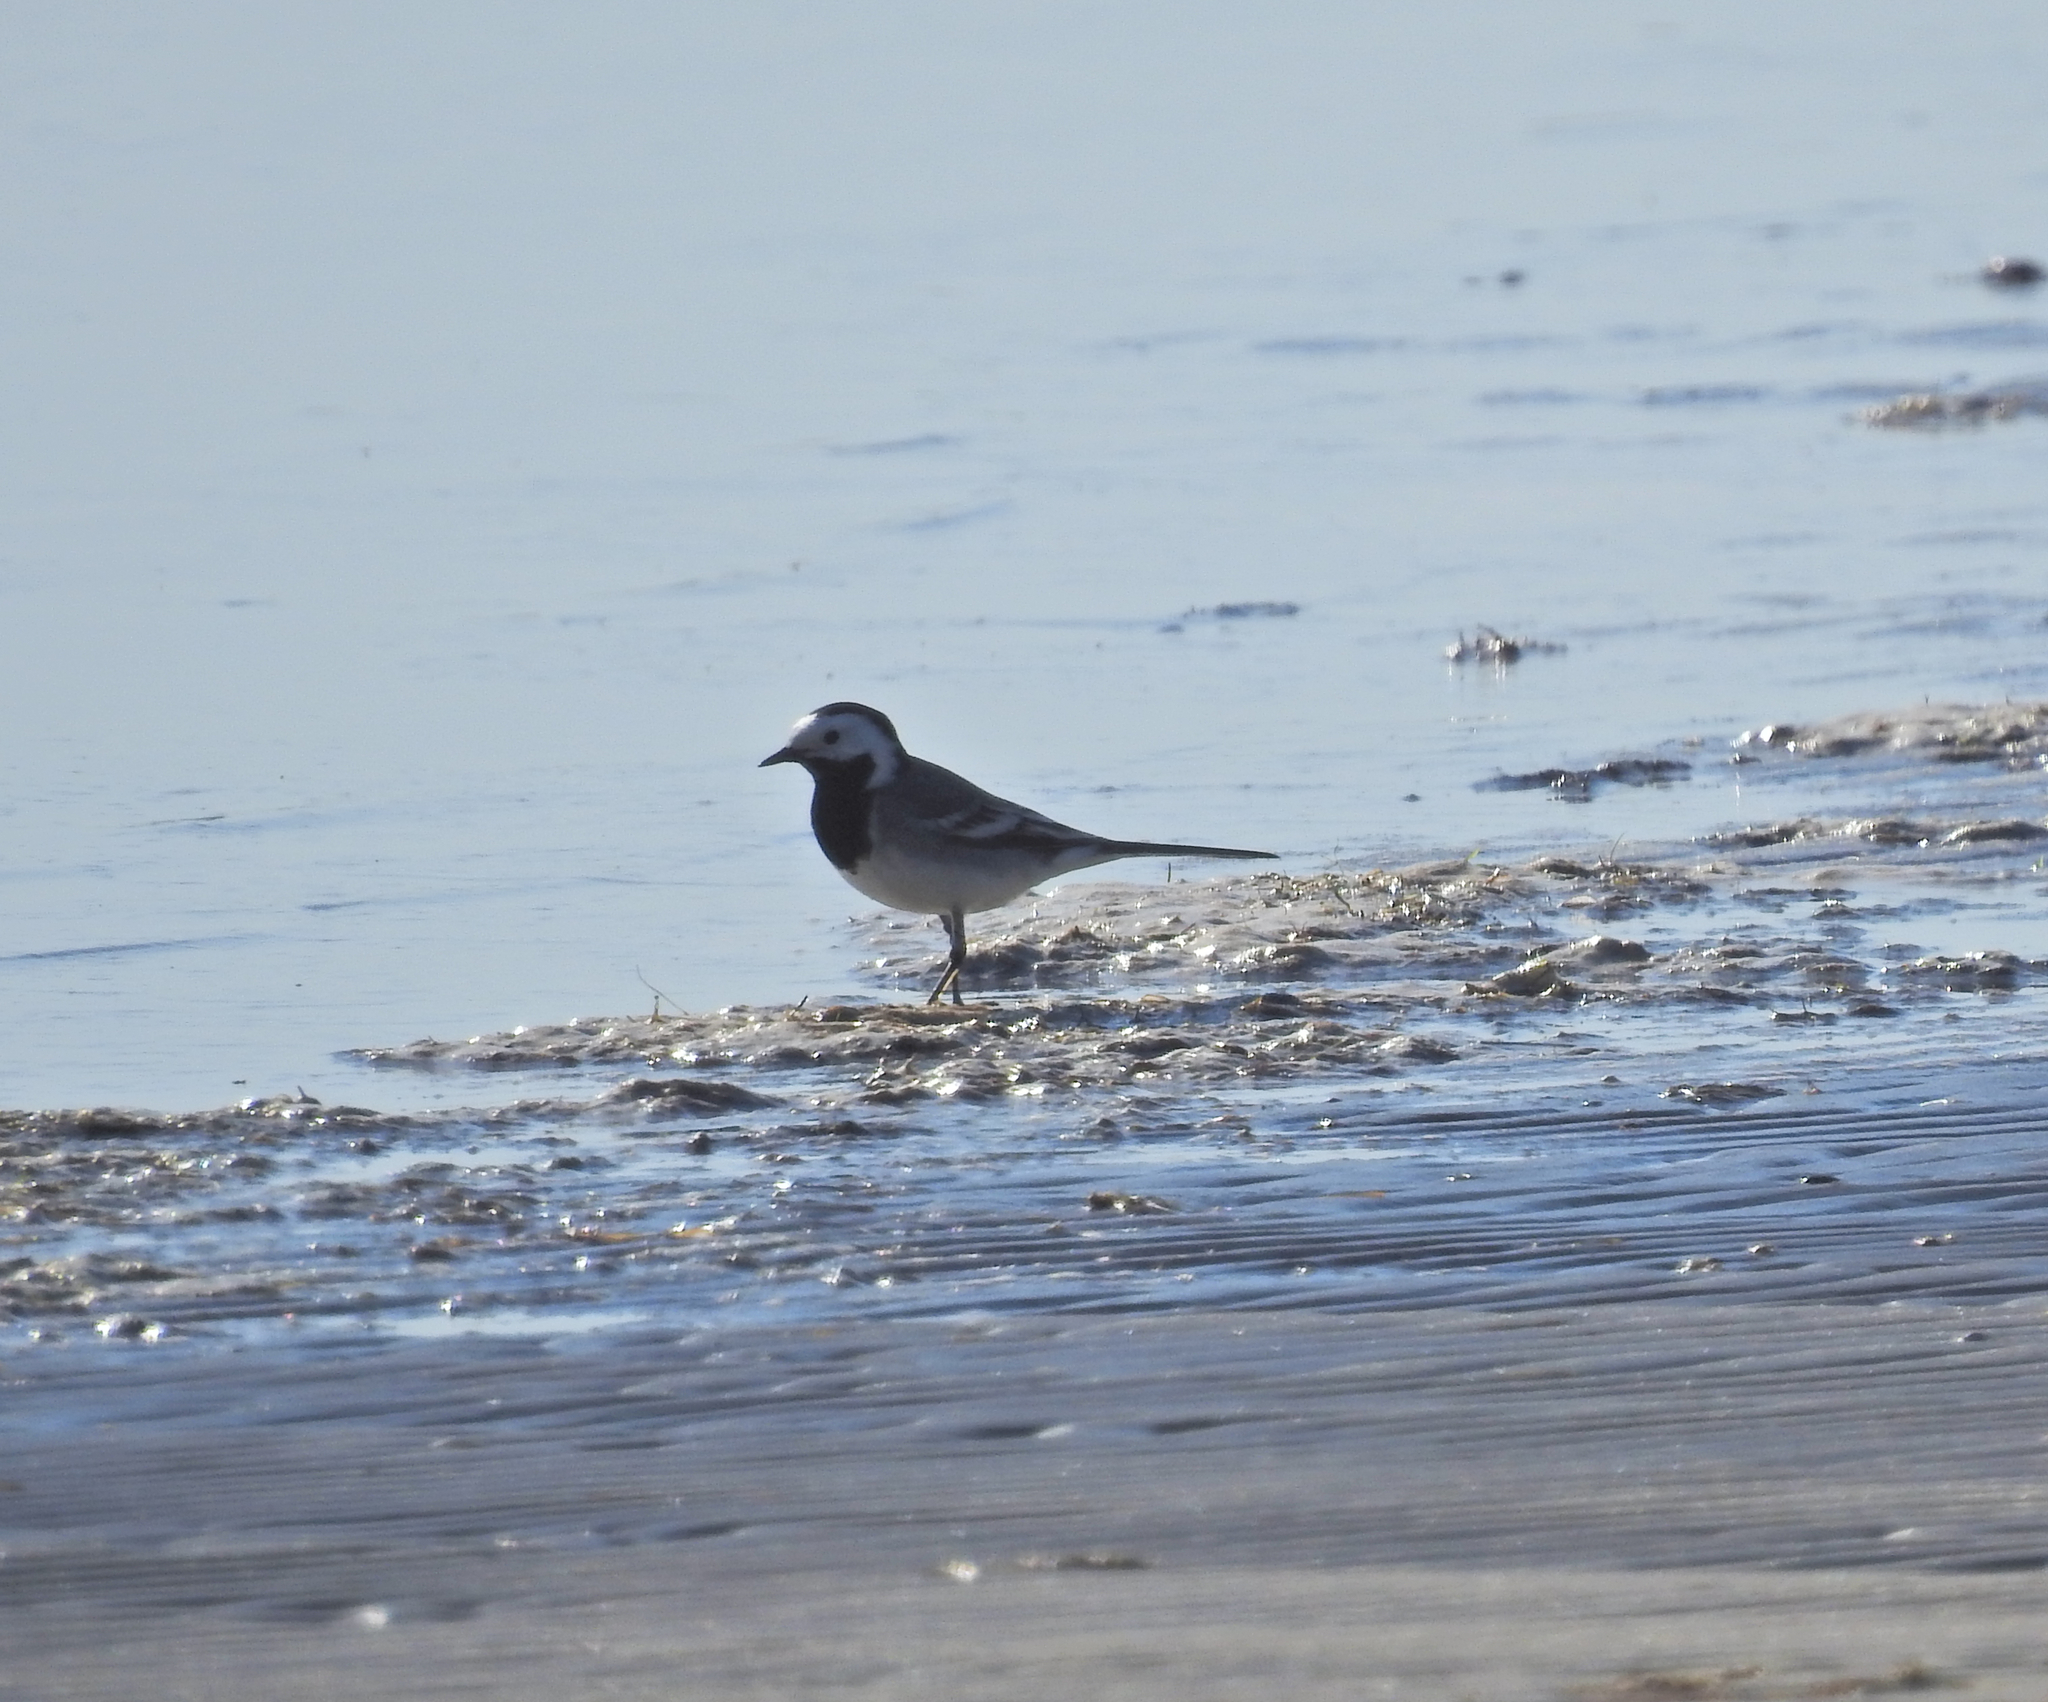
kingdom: Animalia
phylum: Chordata
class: Aves
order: Passeriformes
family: Motacillidae
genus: Motacilla
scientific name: Motacilla alba
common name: White wagtail
